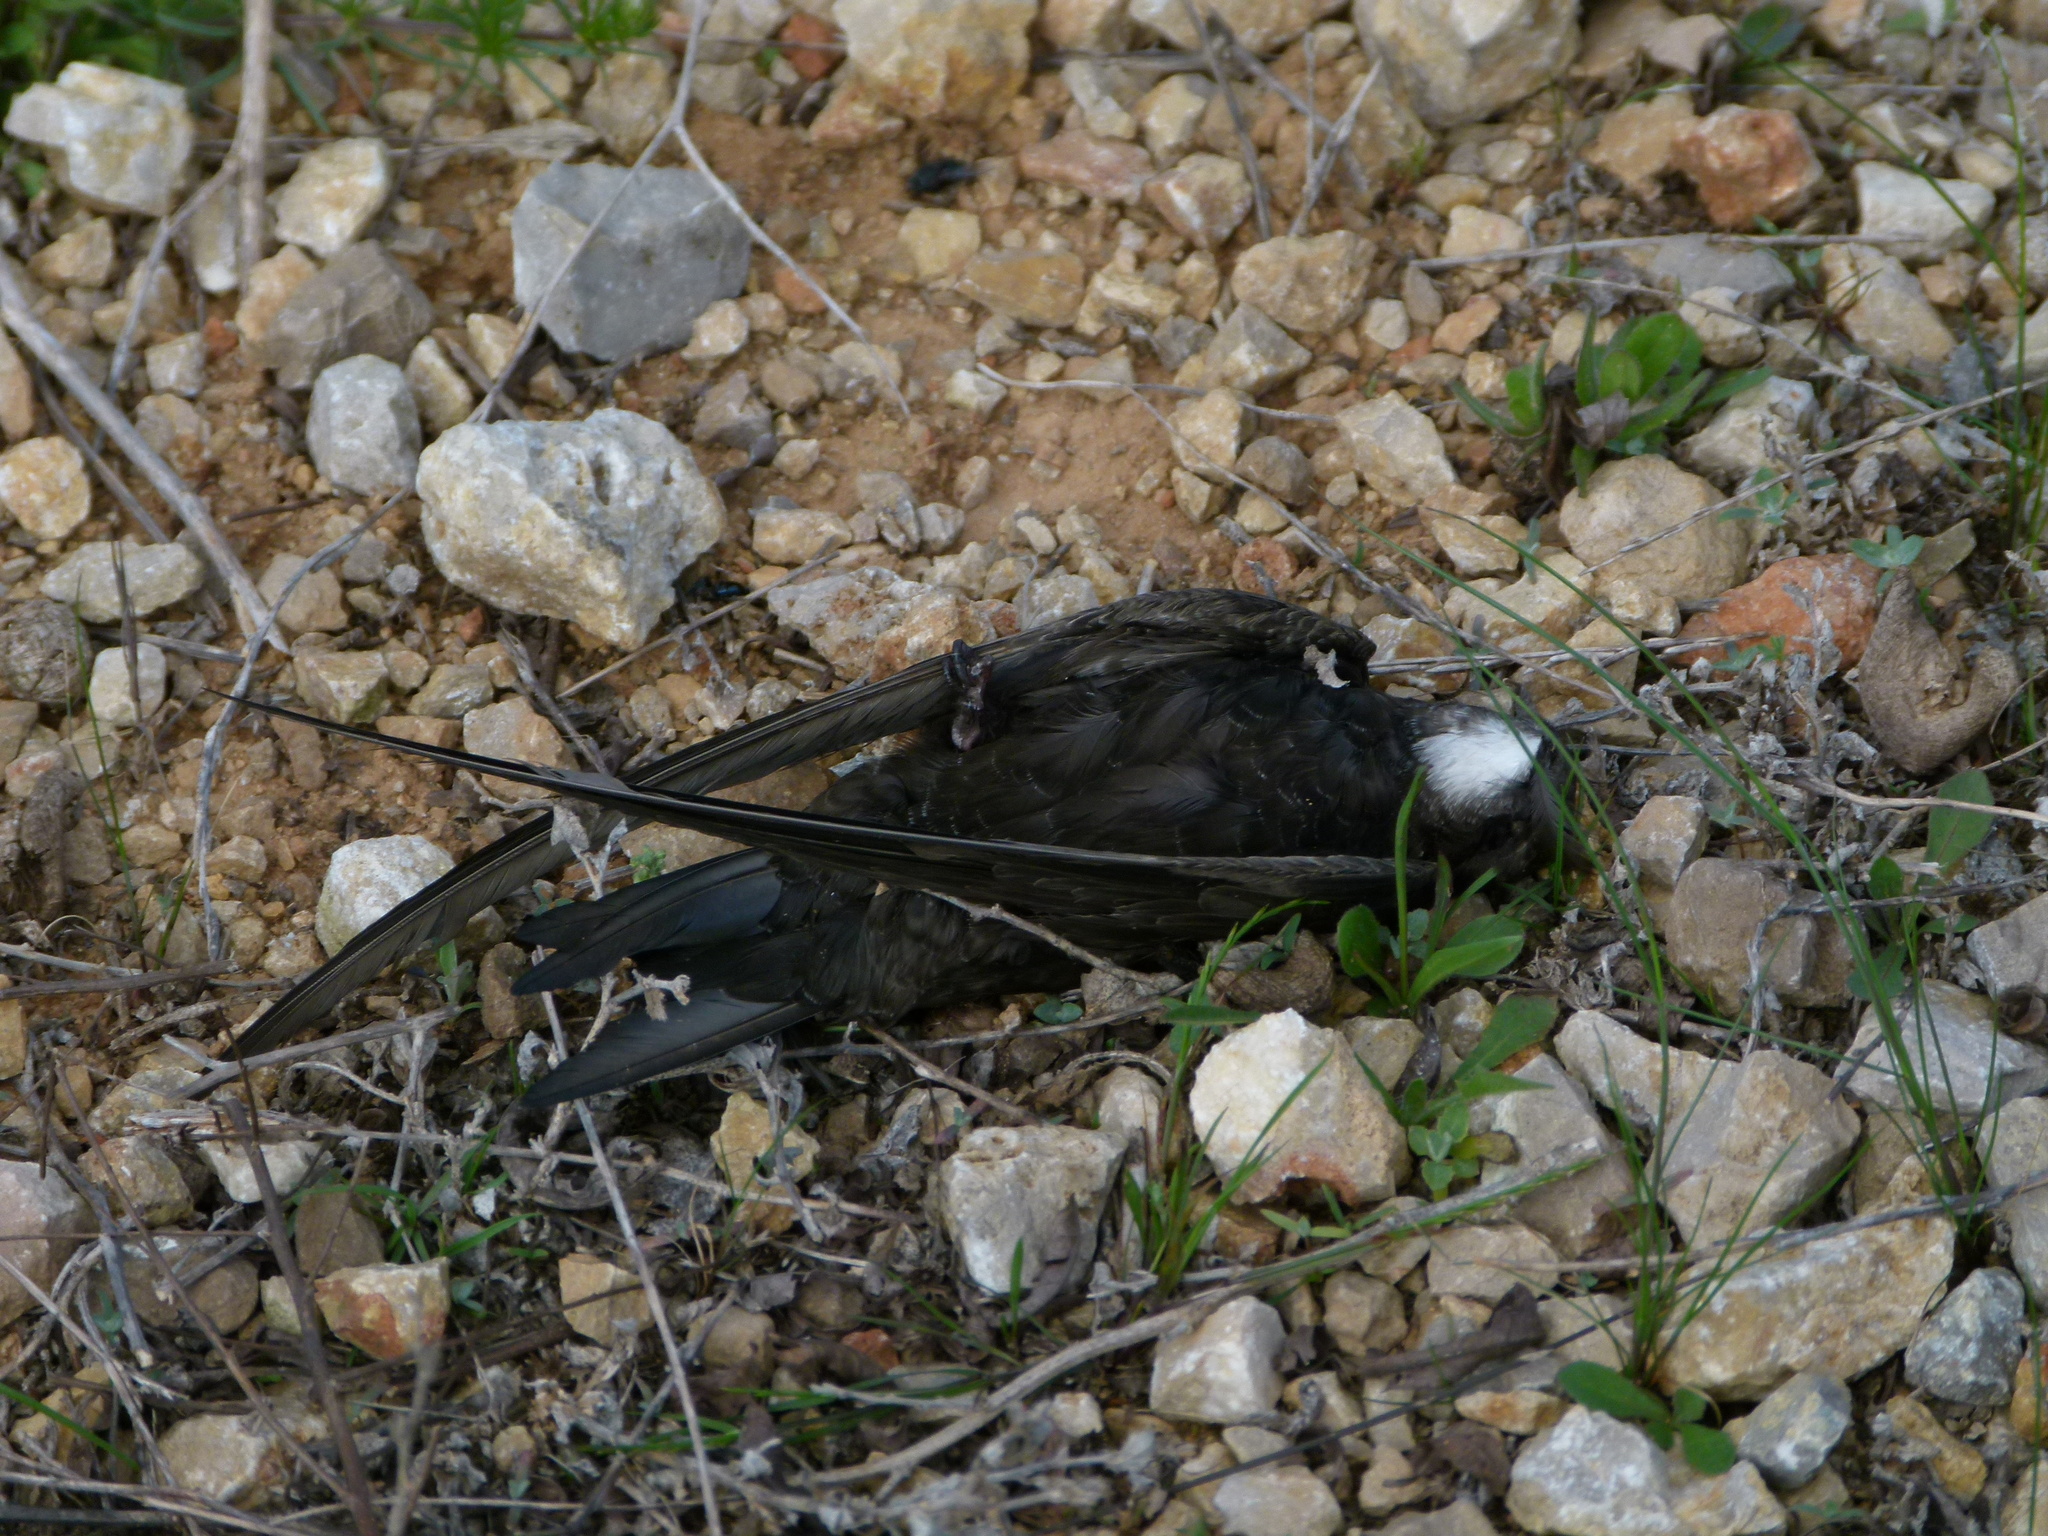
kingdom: Animalia
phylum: Chordata
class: Aves
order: Apodiformes
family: Apodidae
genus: Apus
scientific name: Apus apus
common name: Common swift
